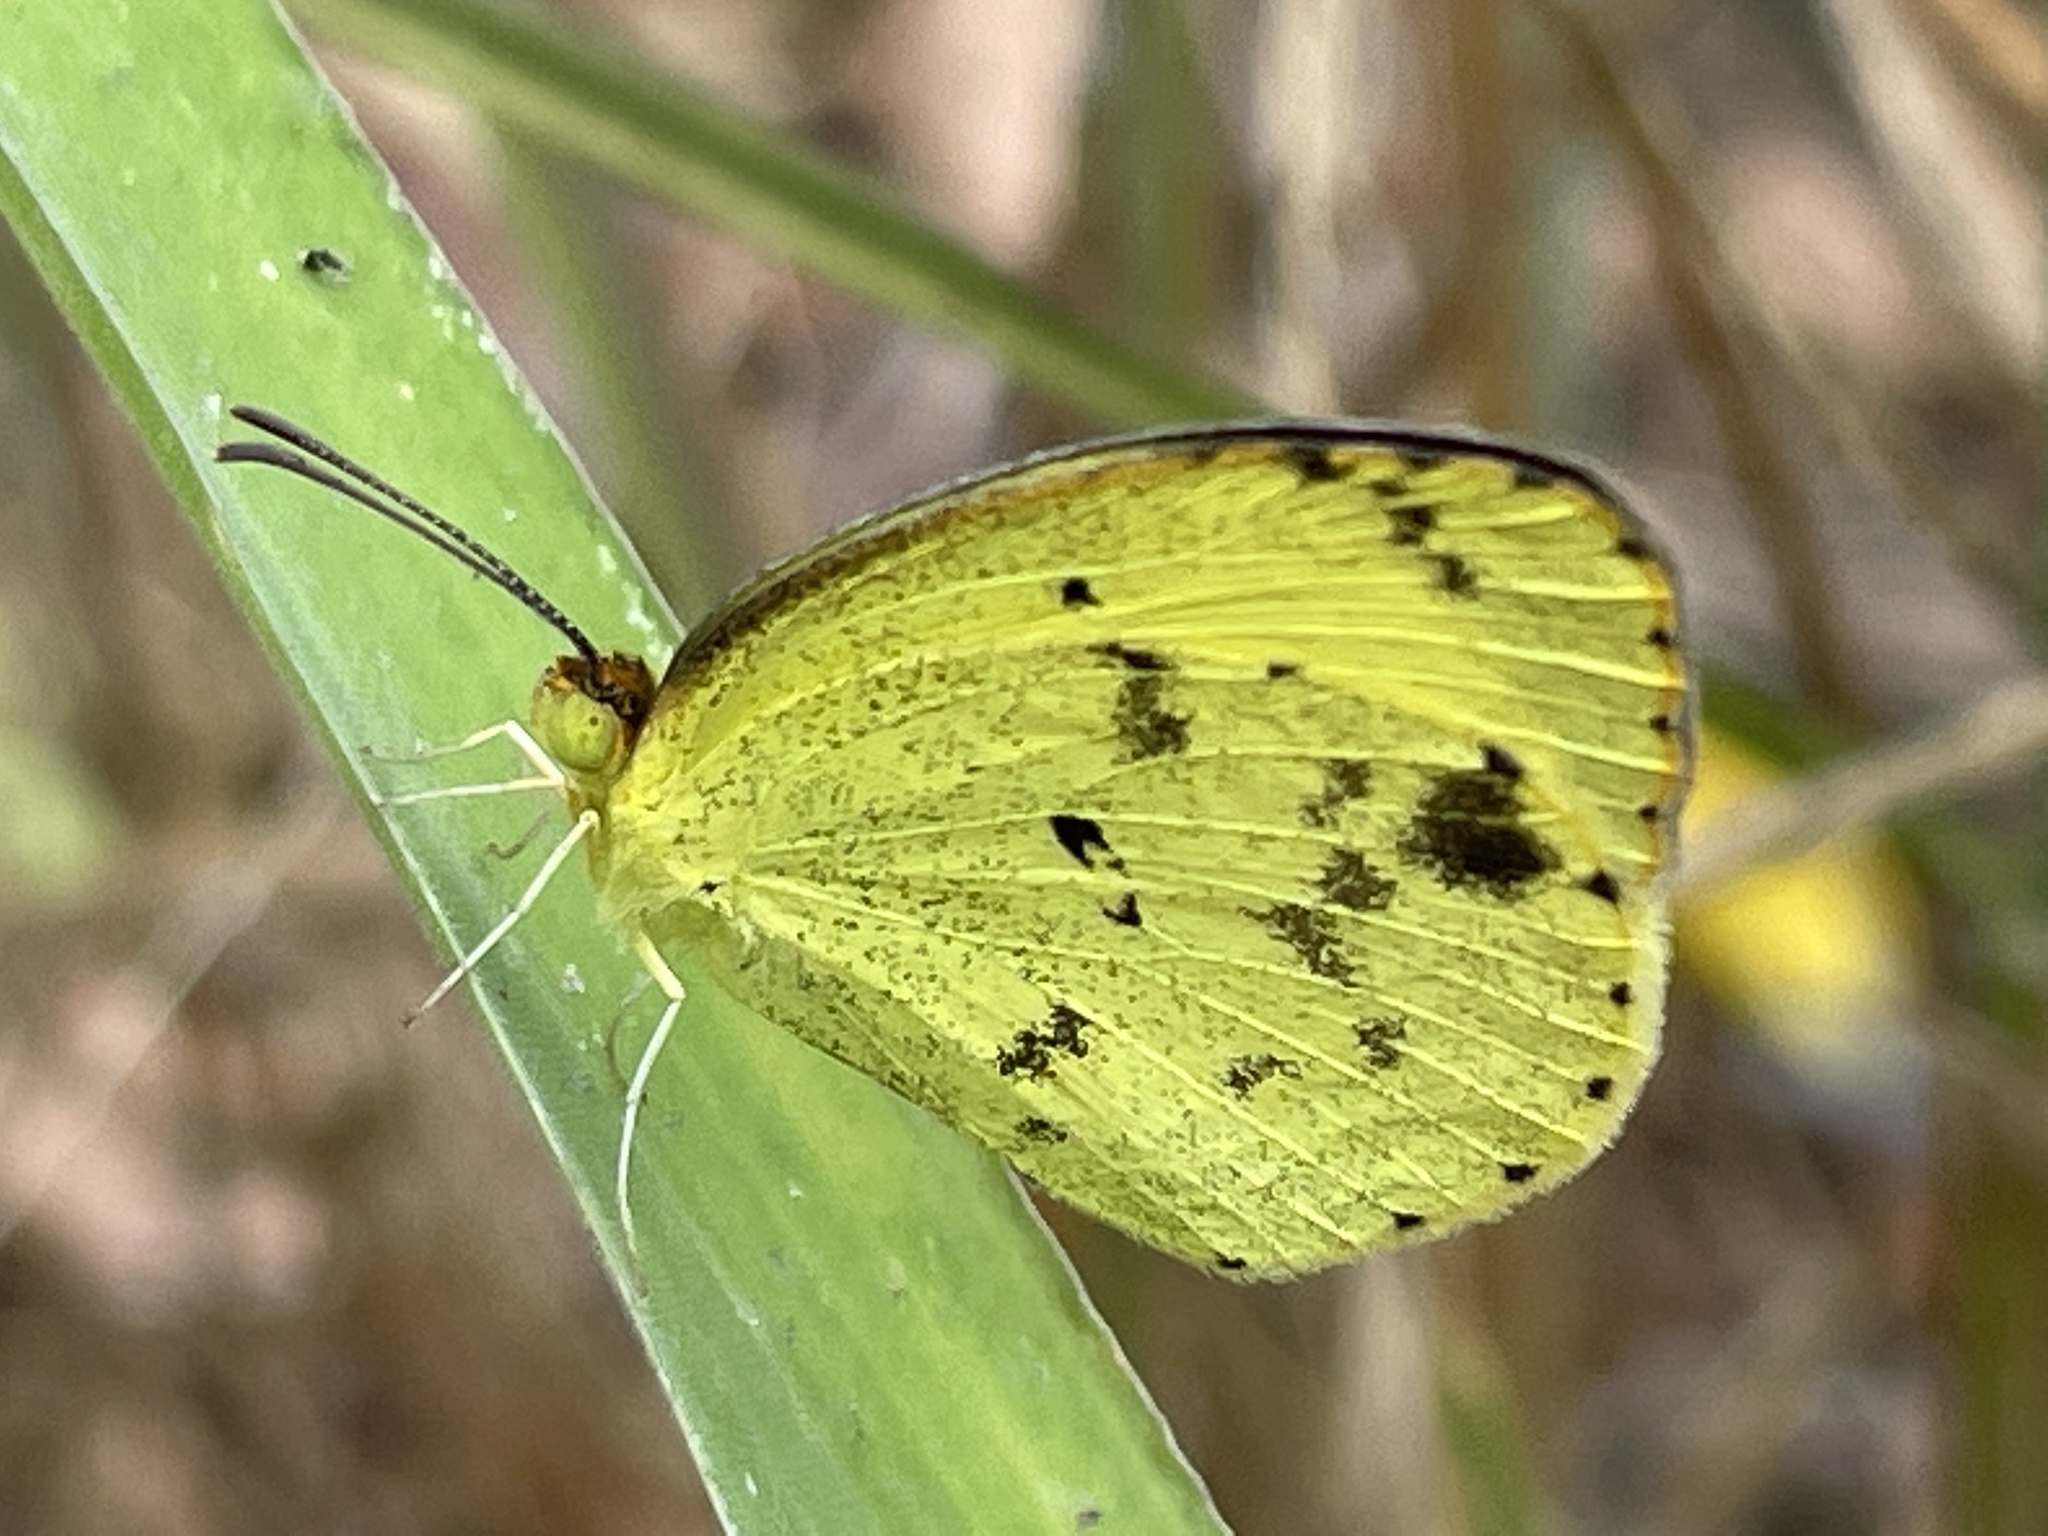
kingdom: Animalia
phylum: Arthropoda
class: Insecta
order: Lepidoptera
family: Pieridae
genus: Pyrisitia
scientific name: Pyrisitia lisa
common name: Little yellow
